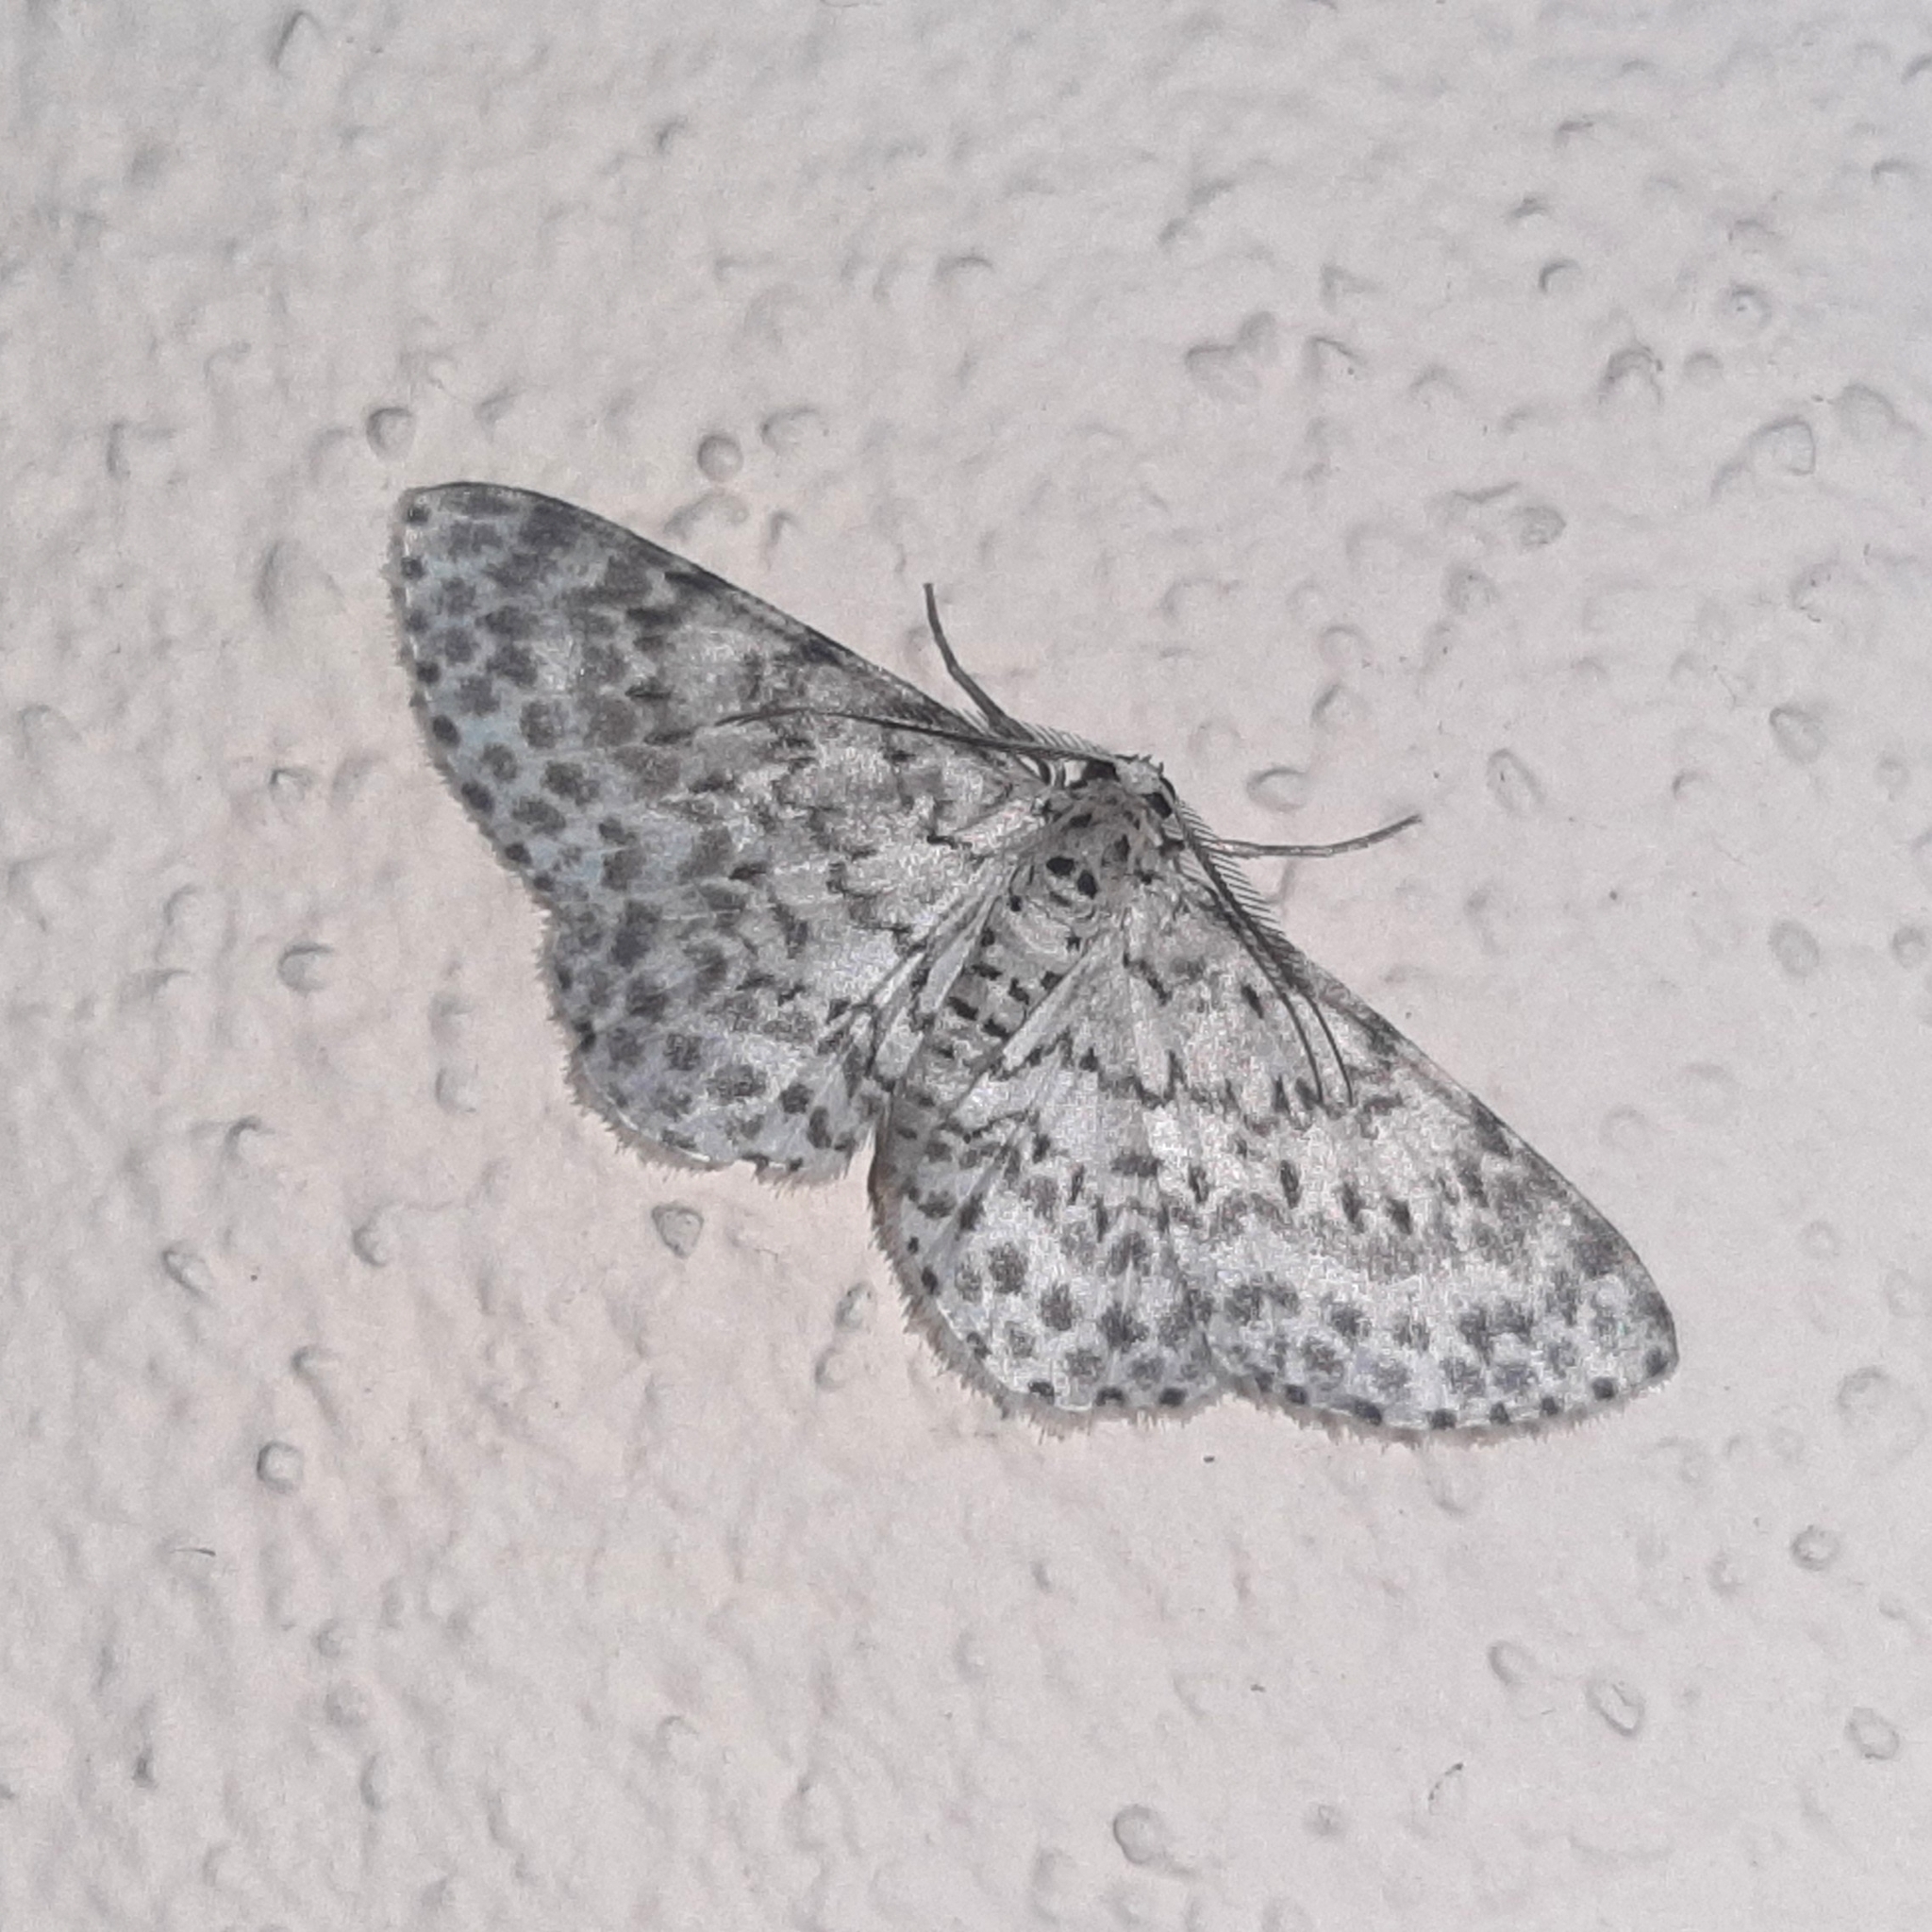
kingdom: Animalia
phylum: Arthropoda
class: Insecta
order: Lepidoptera
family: Geometridae
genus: Hymenomima
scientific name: Hymenomima umbelularia
